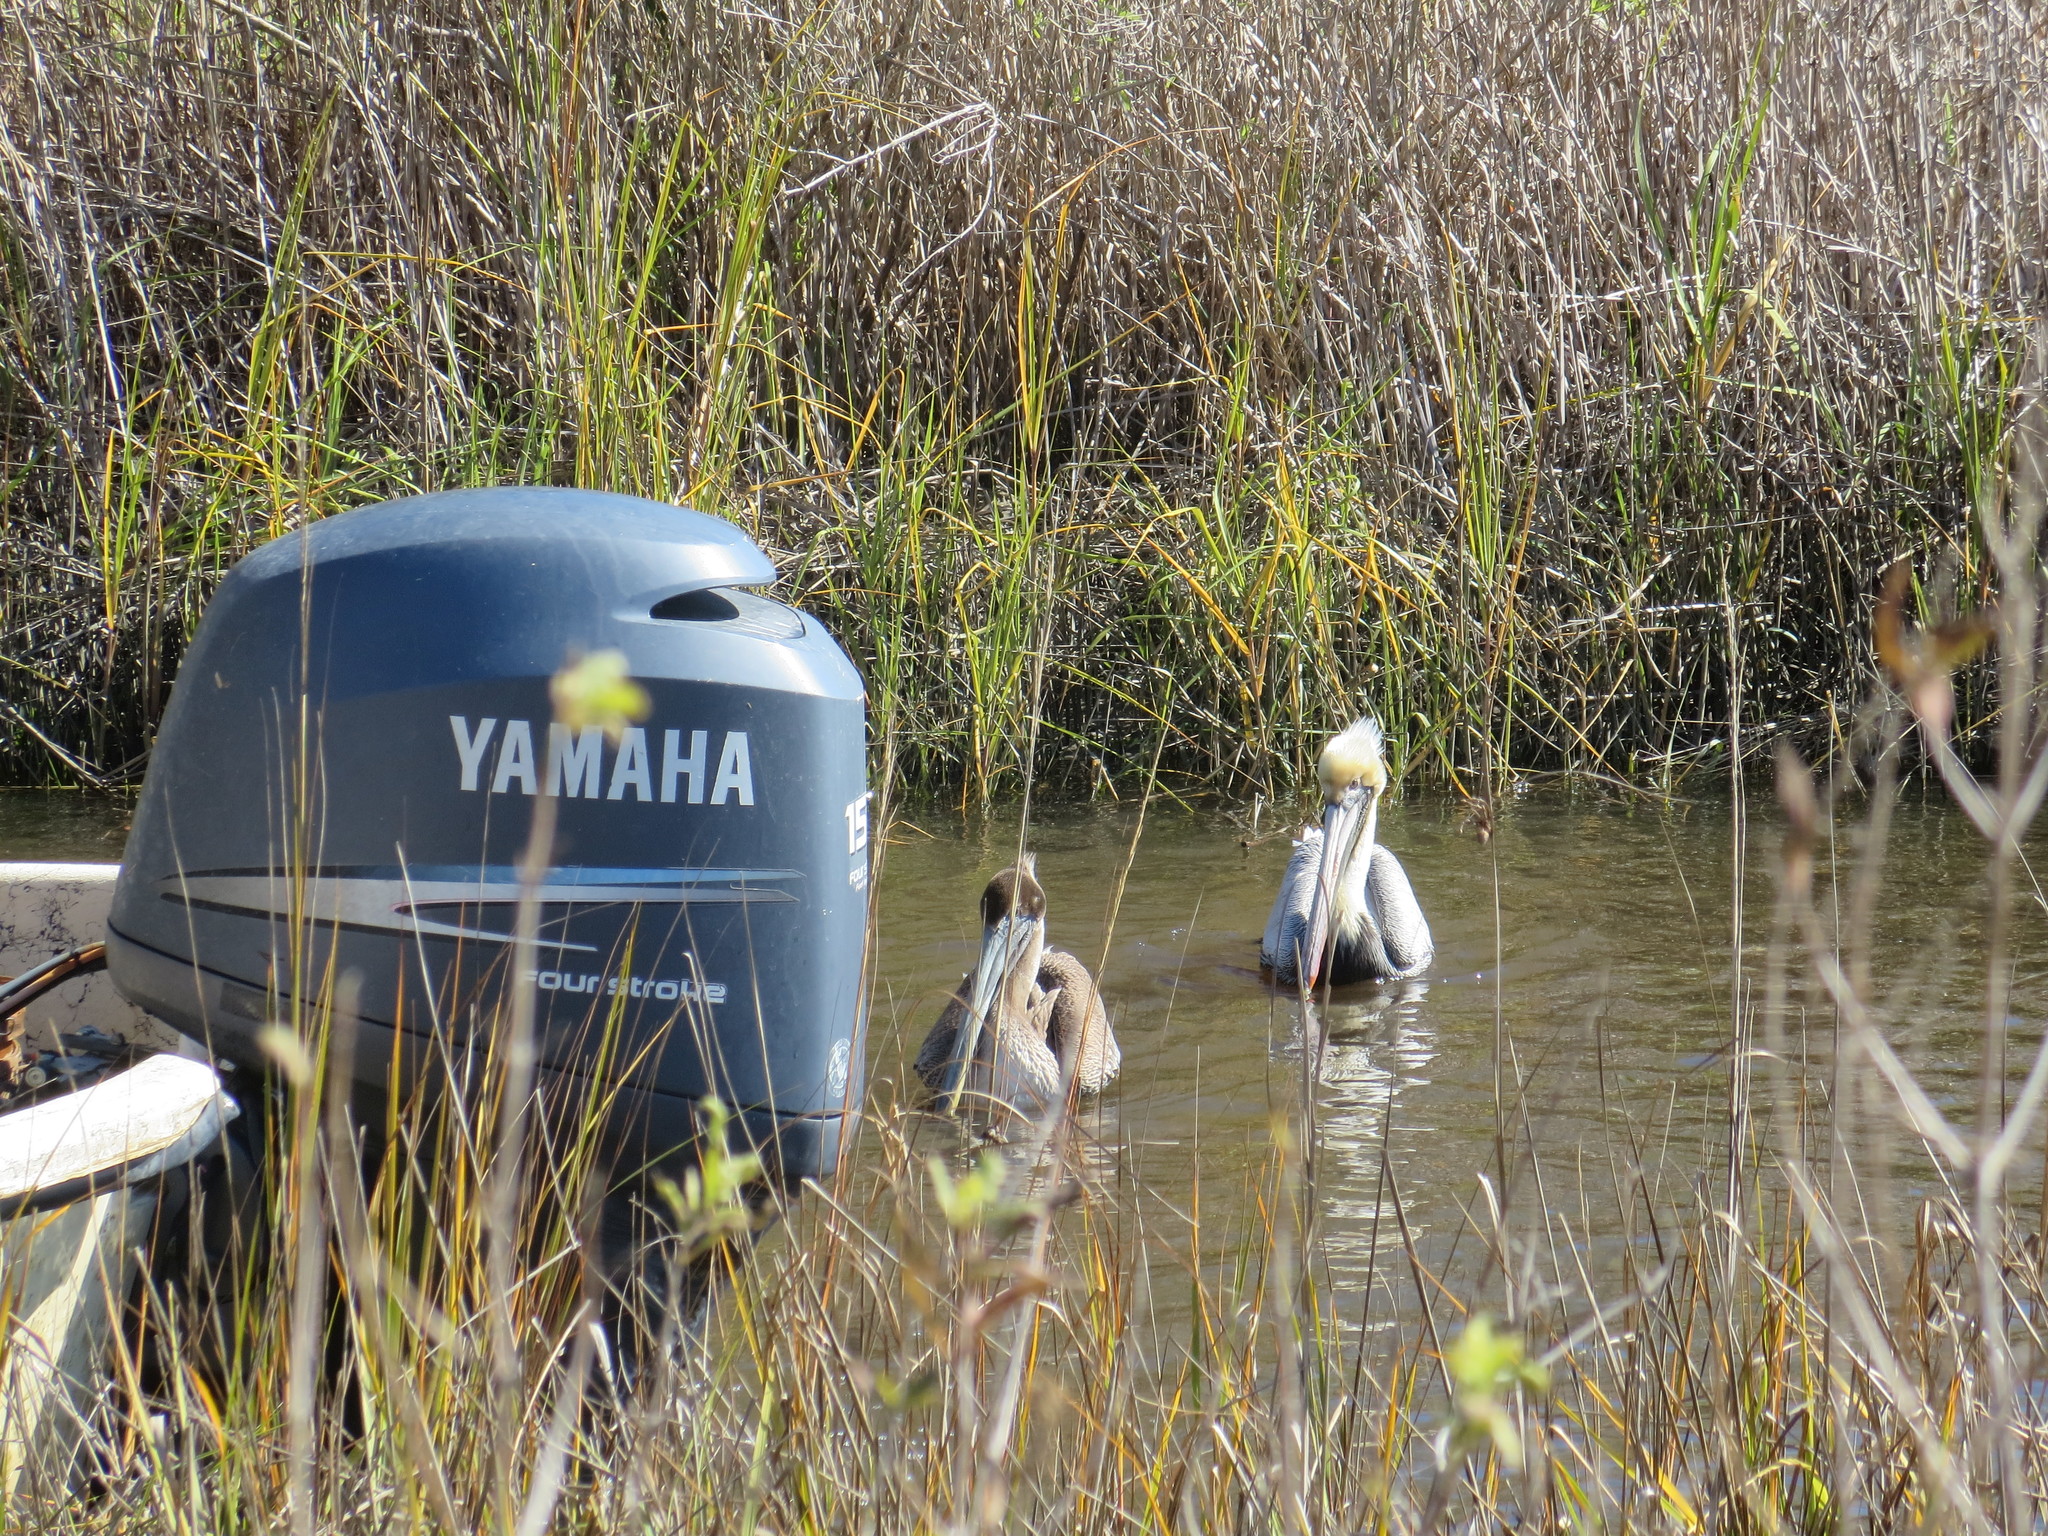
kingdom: Animalia
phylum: Chordata
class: Aves
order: Pelecaniformes
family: Pelecanidae
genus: Pelecanus
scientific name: Pelecanus occidentalis
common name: Brown pelican
